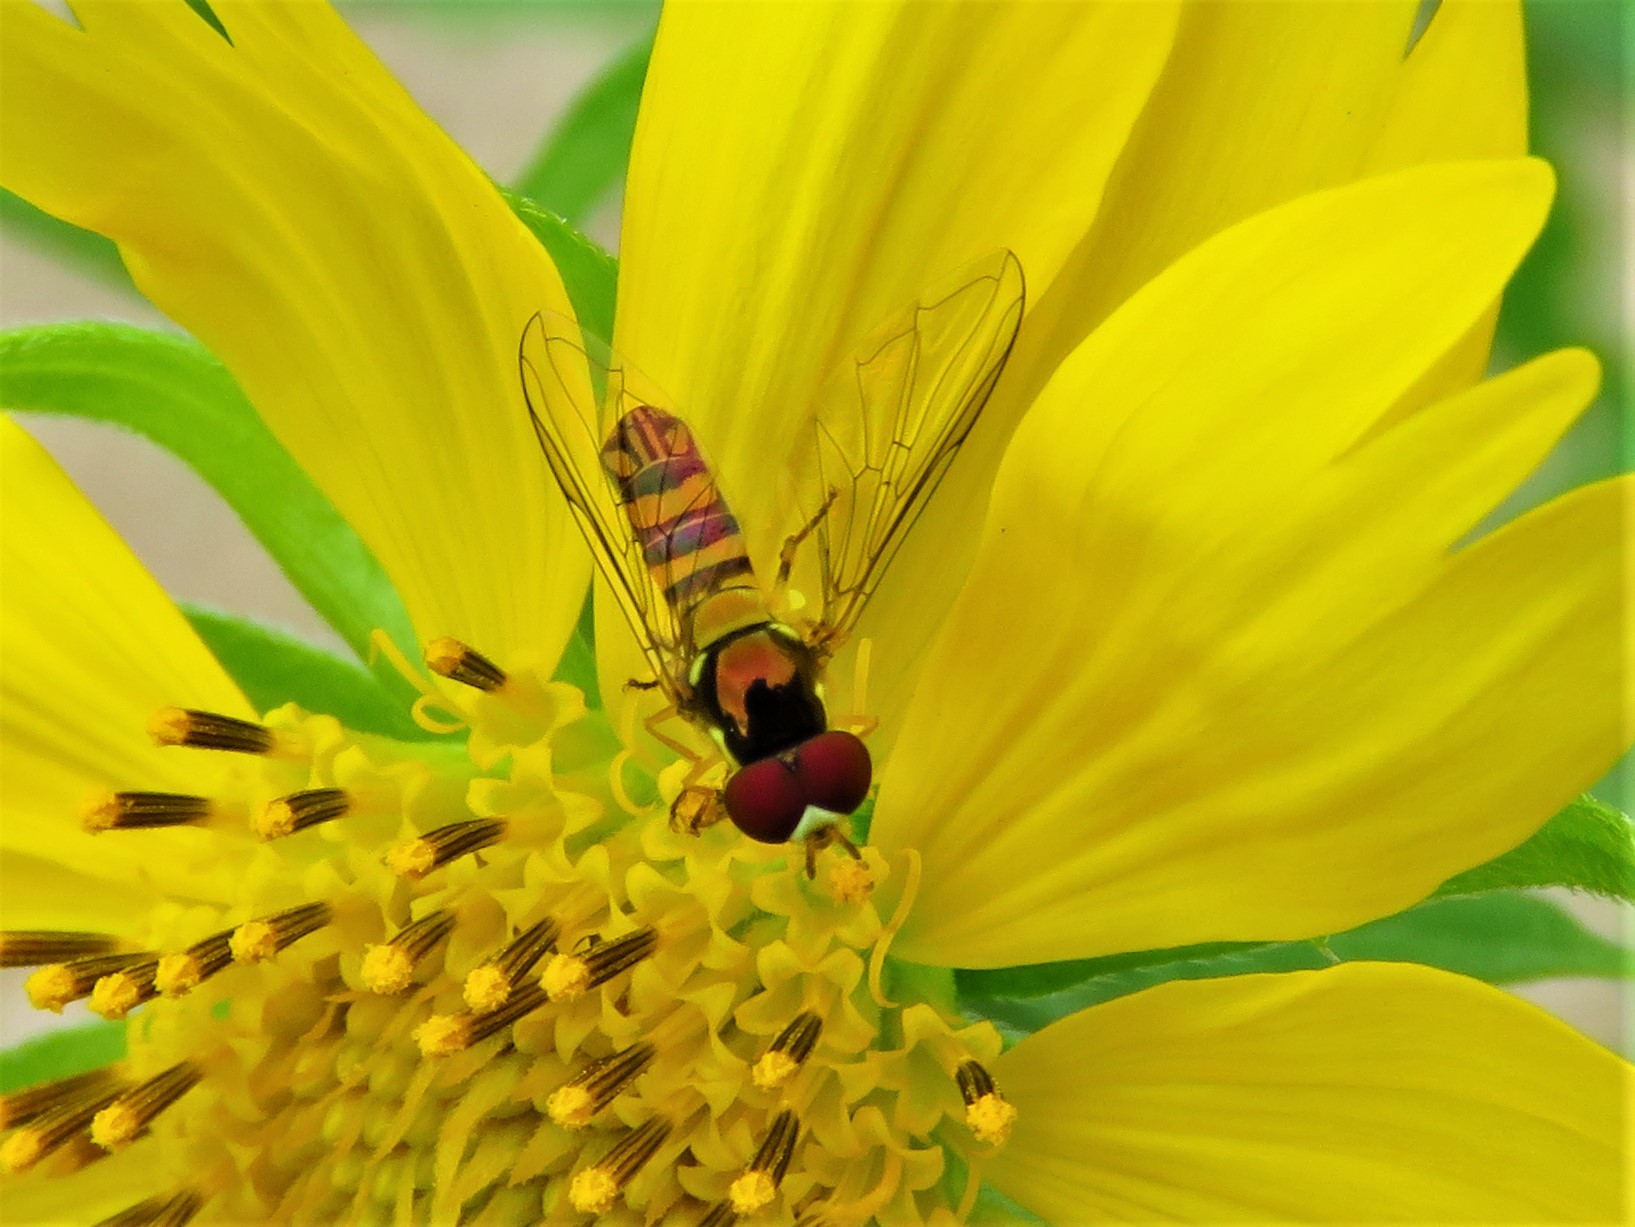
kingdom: Animalia
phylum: Arthropoda
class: Insecta
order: Diptera
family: Syrphidae
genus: Allograpta
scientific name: Allograpta obliqua
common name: Common oblique syrphid
